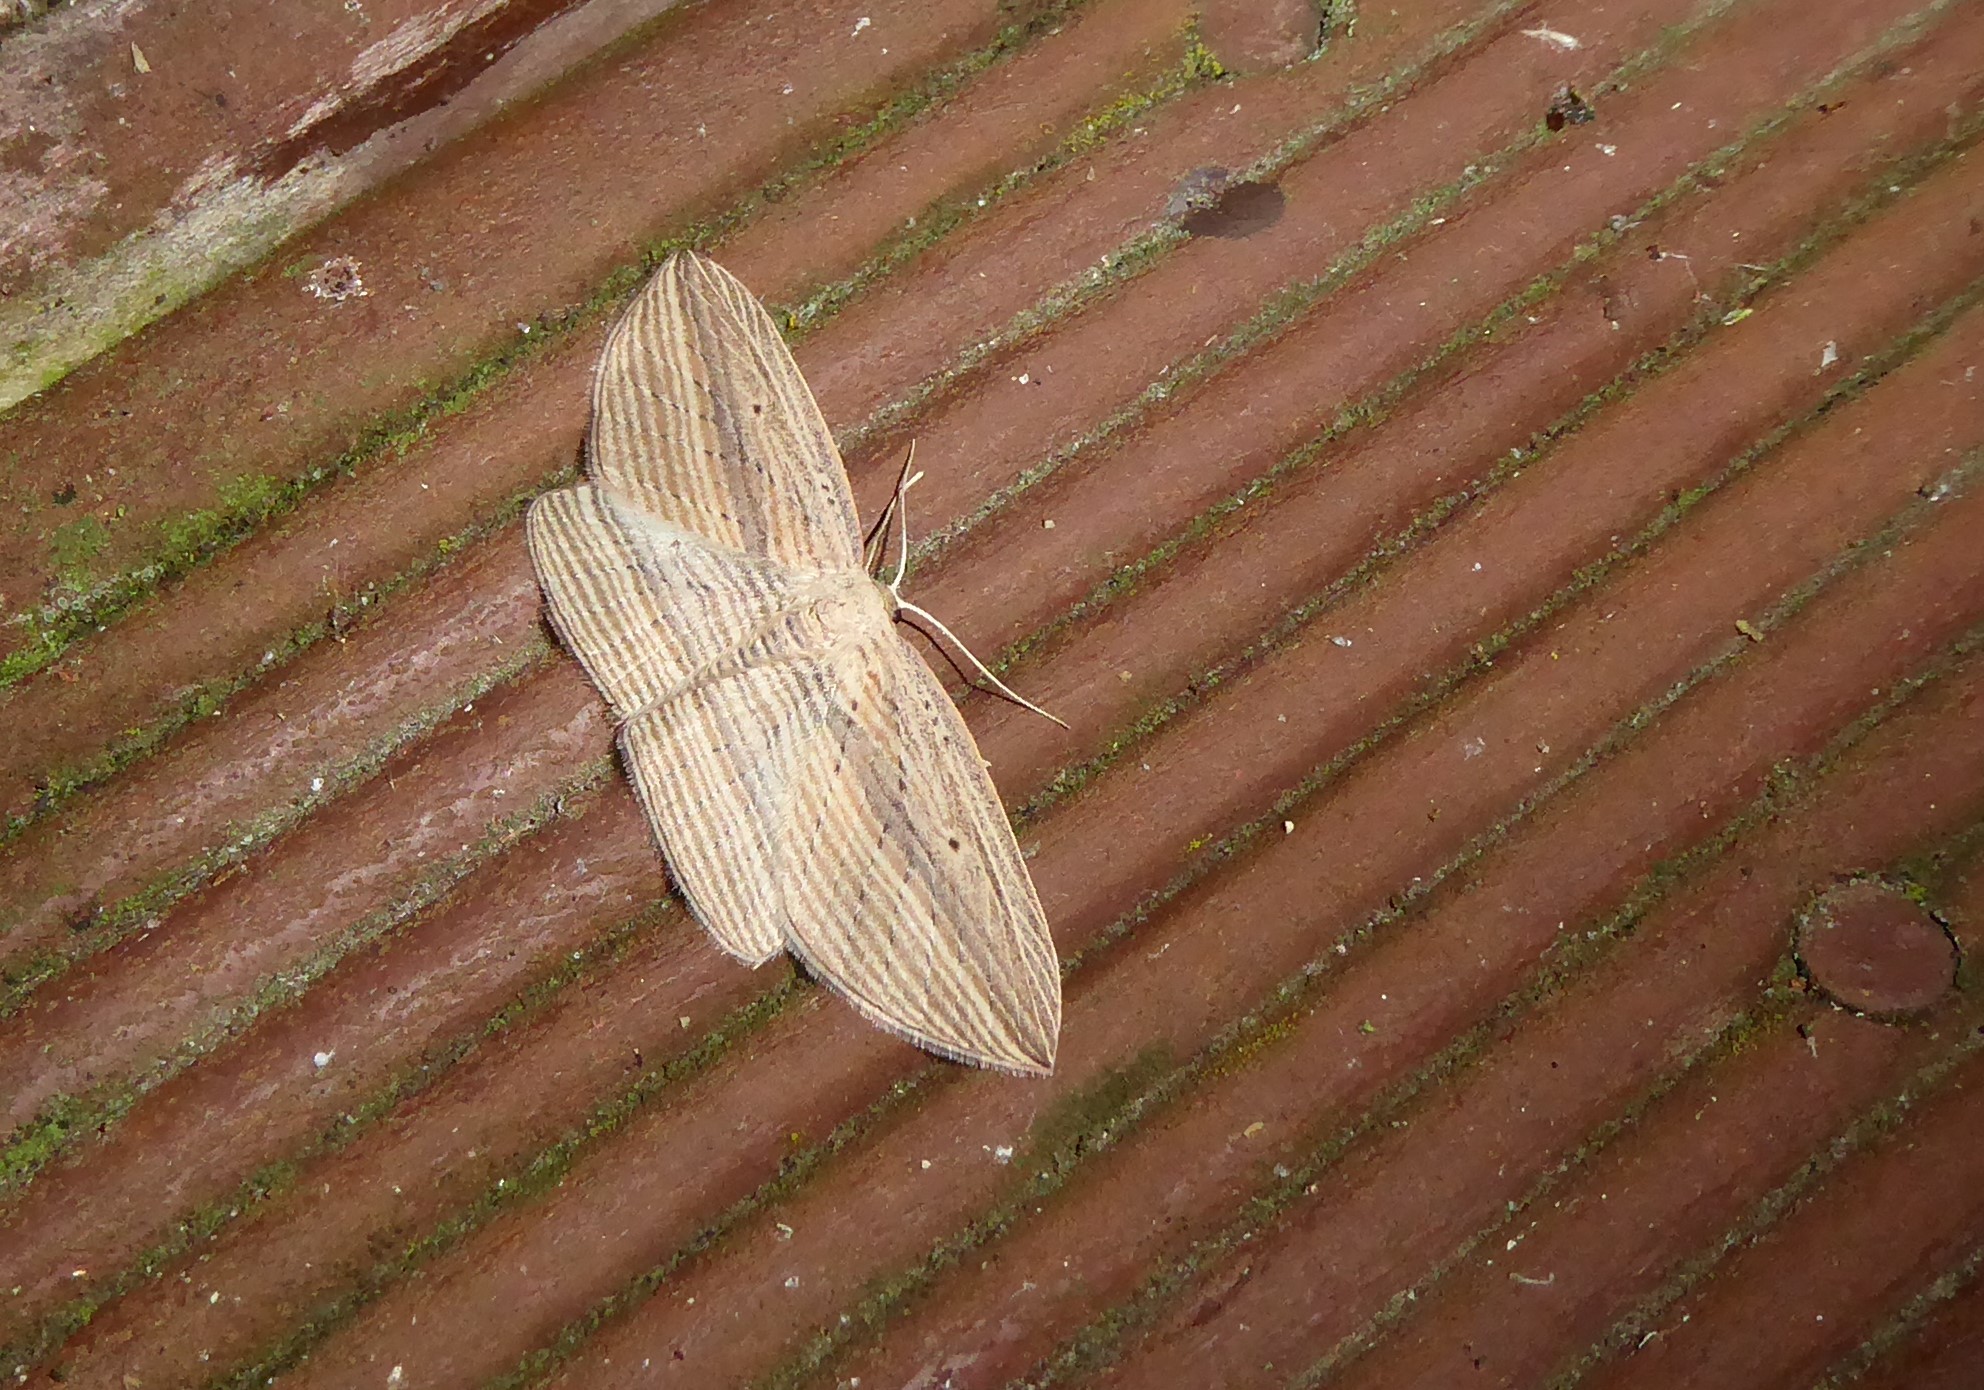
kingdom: Animalia
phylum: Arthropoda
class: Insecta
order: Lepidoptera
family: Geometridae
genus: Epiphryne
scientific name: Epiphryne verriculata
